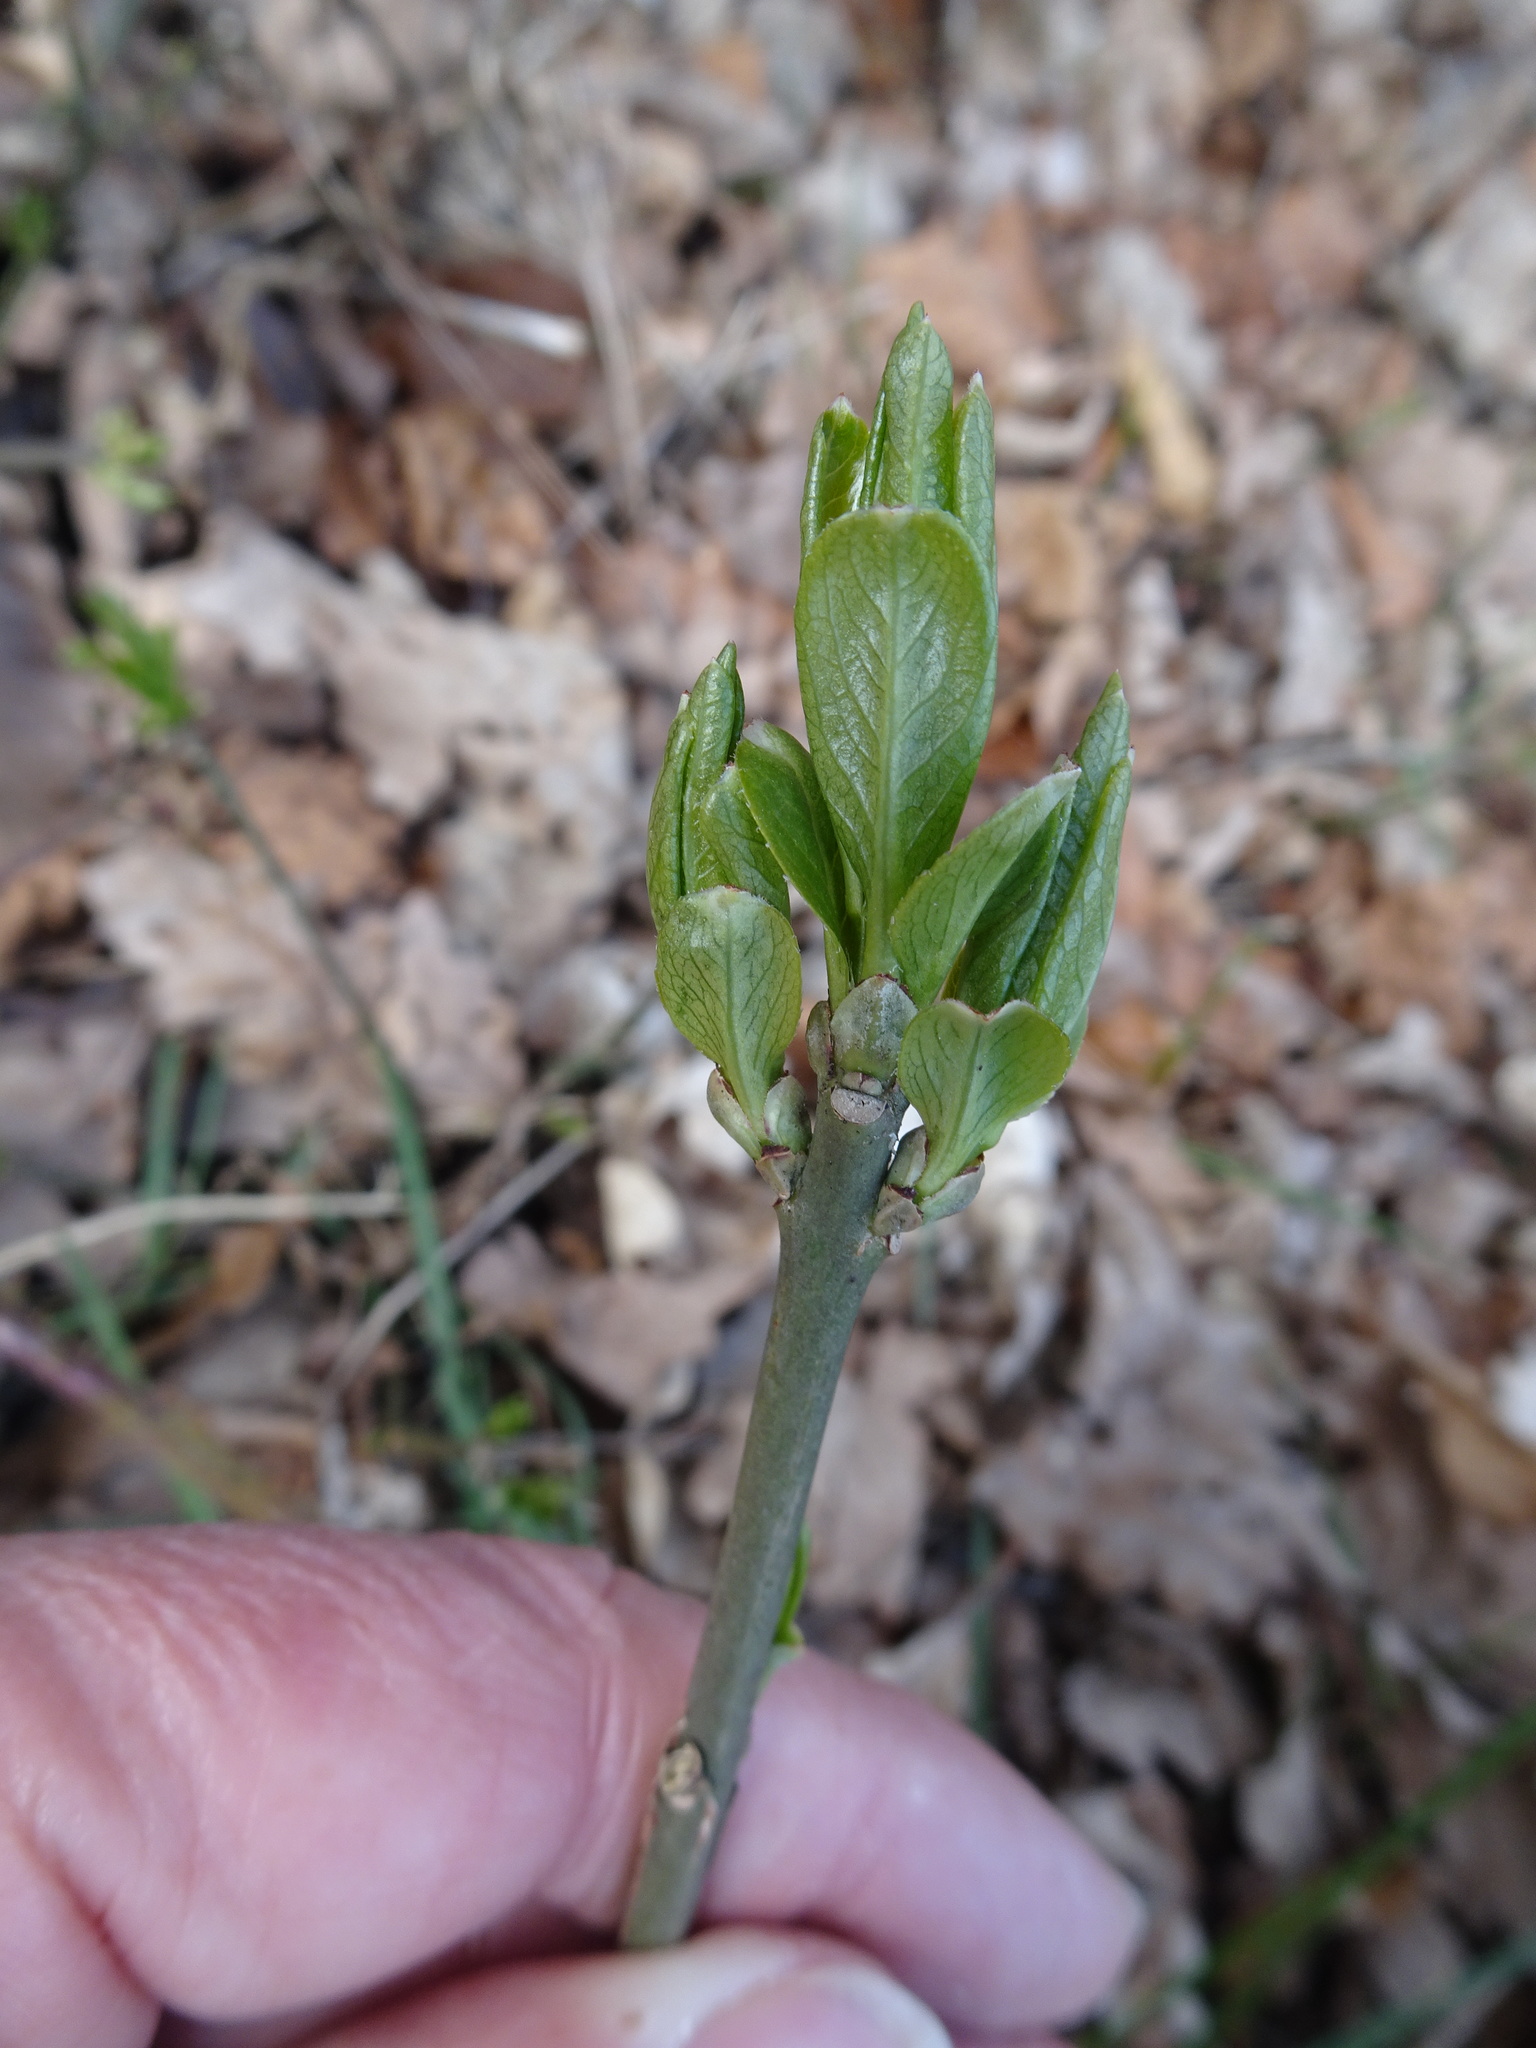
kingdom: Plantae
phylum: Tracheophyta
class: Magnoliopsida
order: Celastrales
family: Celastraceae
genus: Euonymus
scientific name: Euonymus europaeus
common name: Spindle
